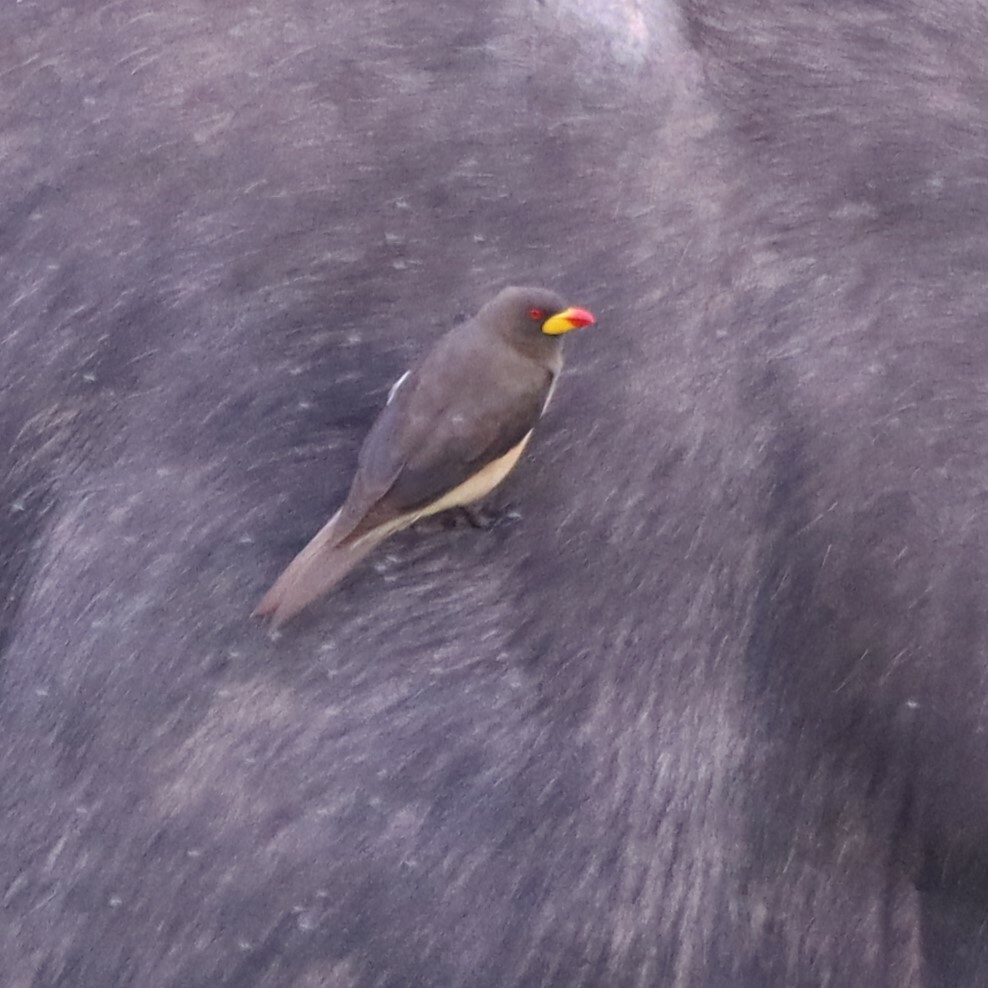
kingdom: Animalia
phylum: Chordata
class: Aves
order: Passeriformes
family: Buphagidae
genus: Buphagus
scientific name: Buphagus africanus
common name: Yellow-billed oxpecker
